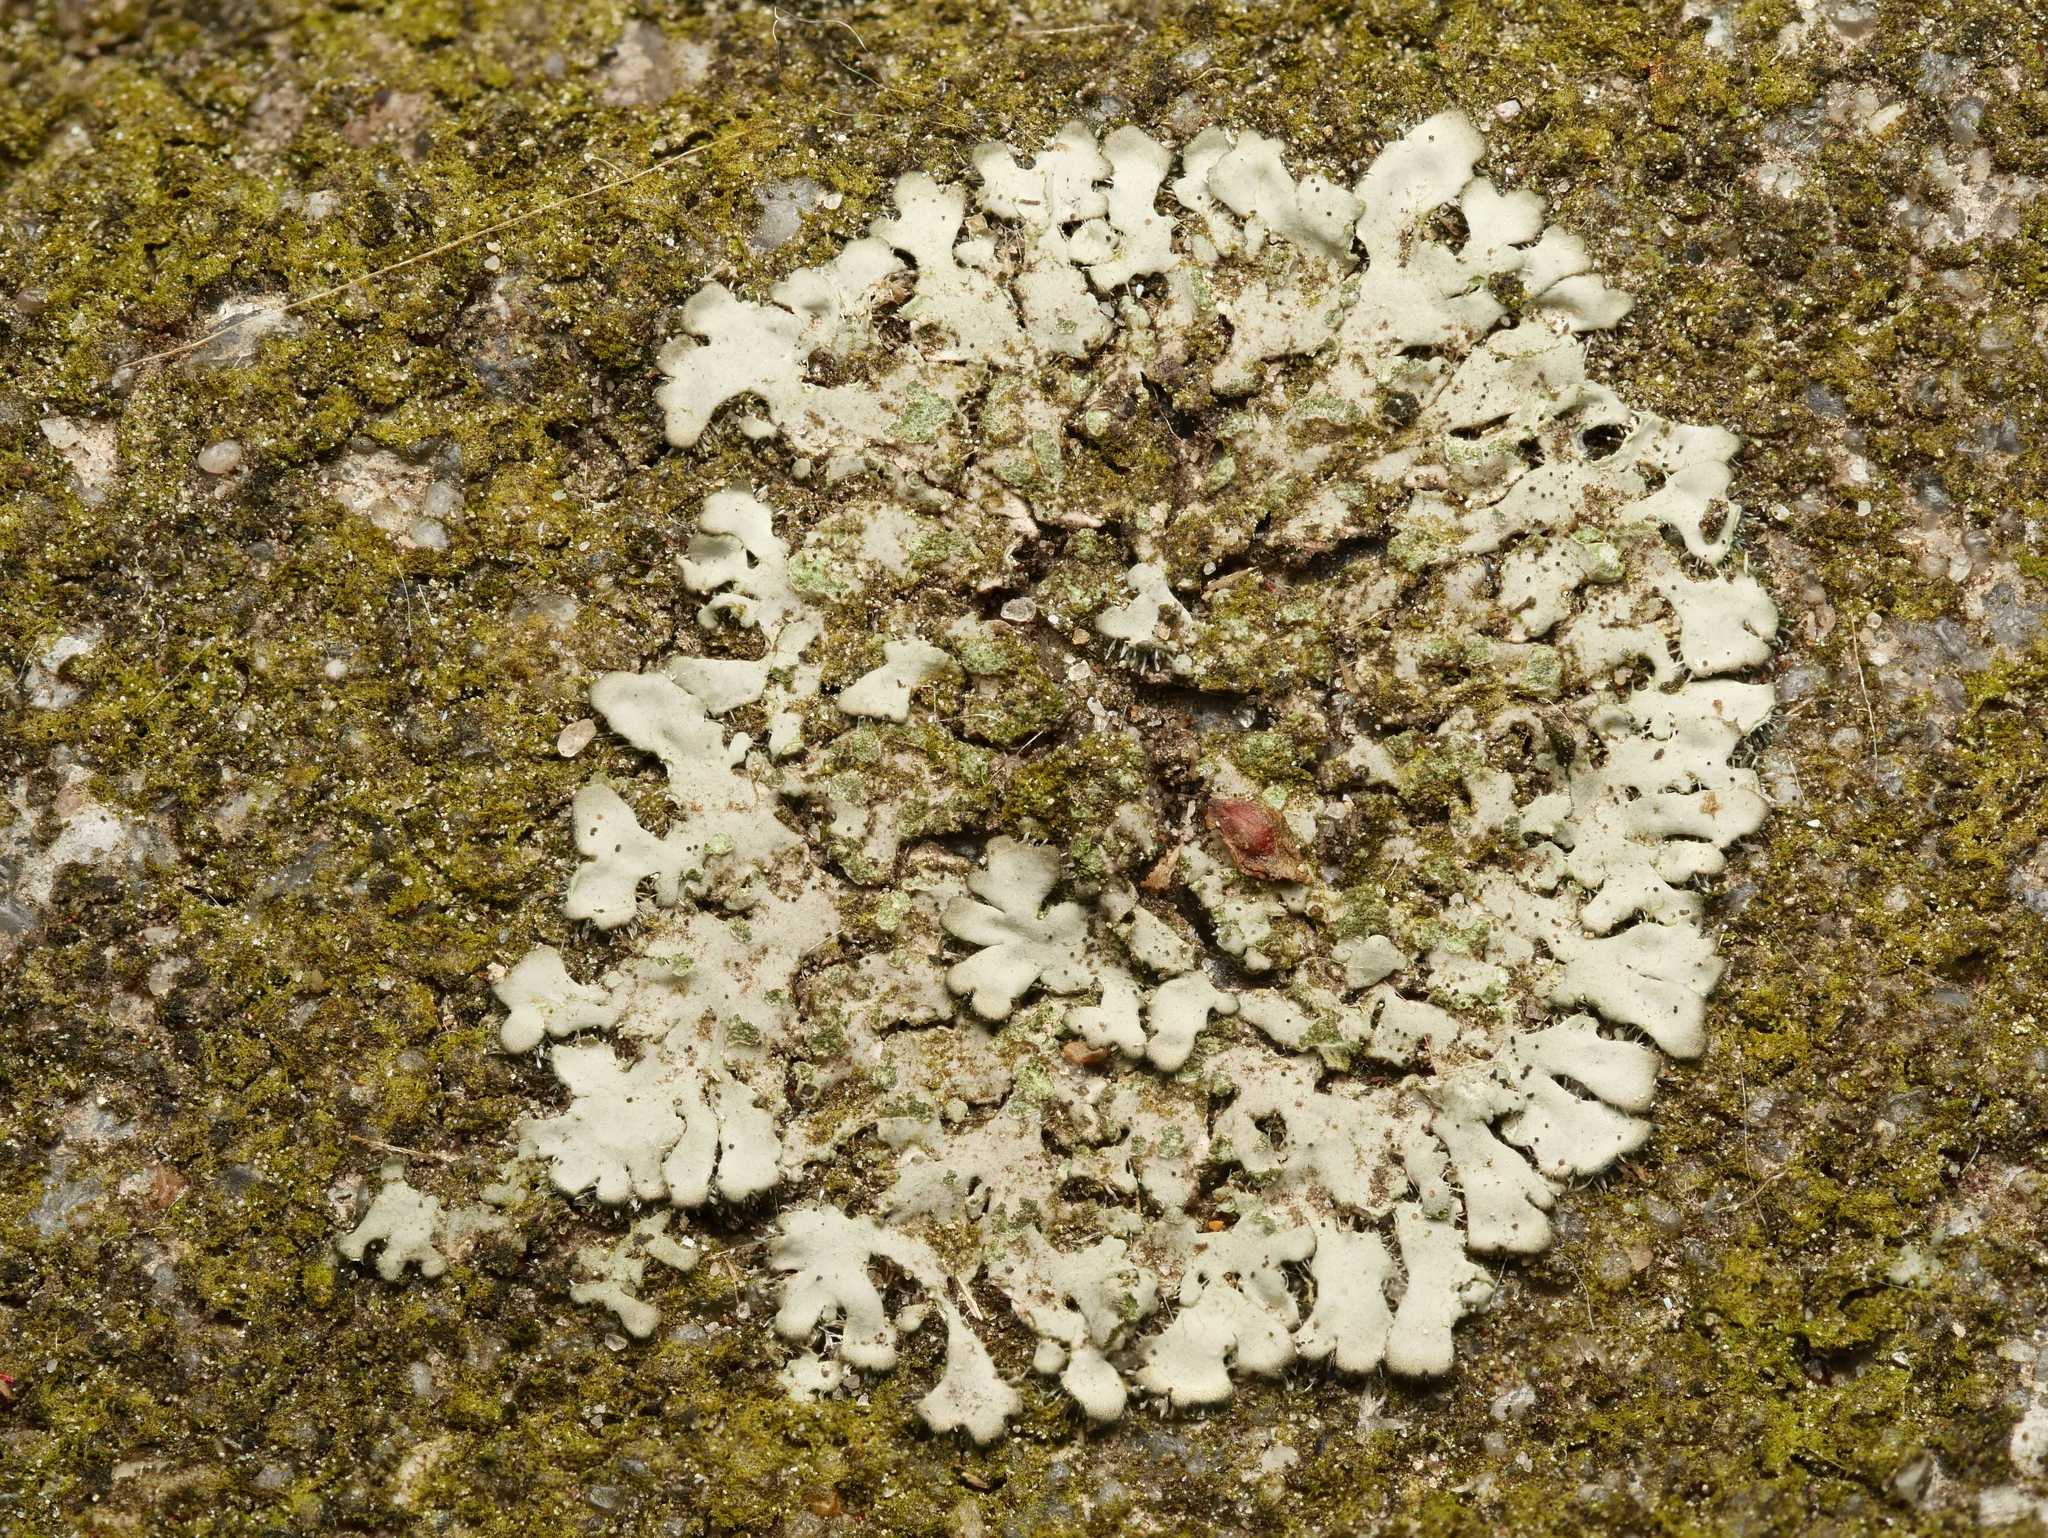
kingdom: Fungi
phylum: Ascomycota
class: Lecanoromycetes
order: Caliciales
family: Physciaceae
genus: Phaeophyscia
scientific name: Phaeophyscia orbicularis
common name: Mealy shadow lichen
